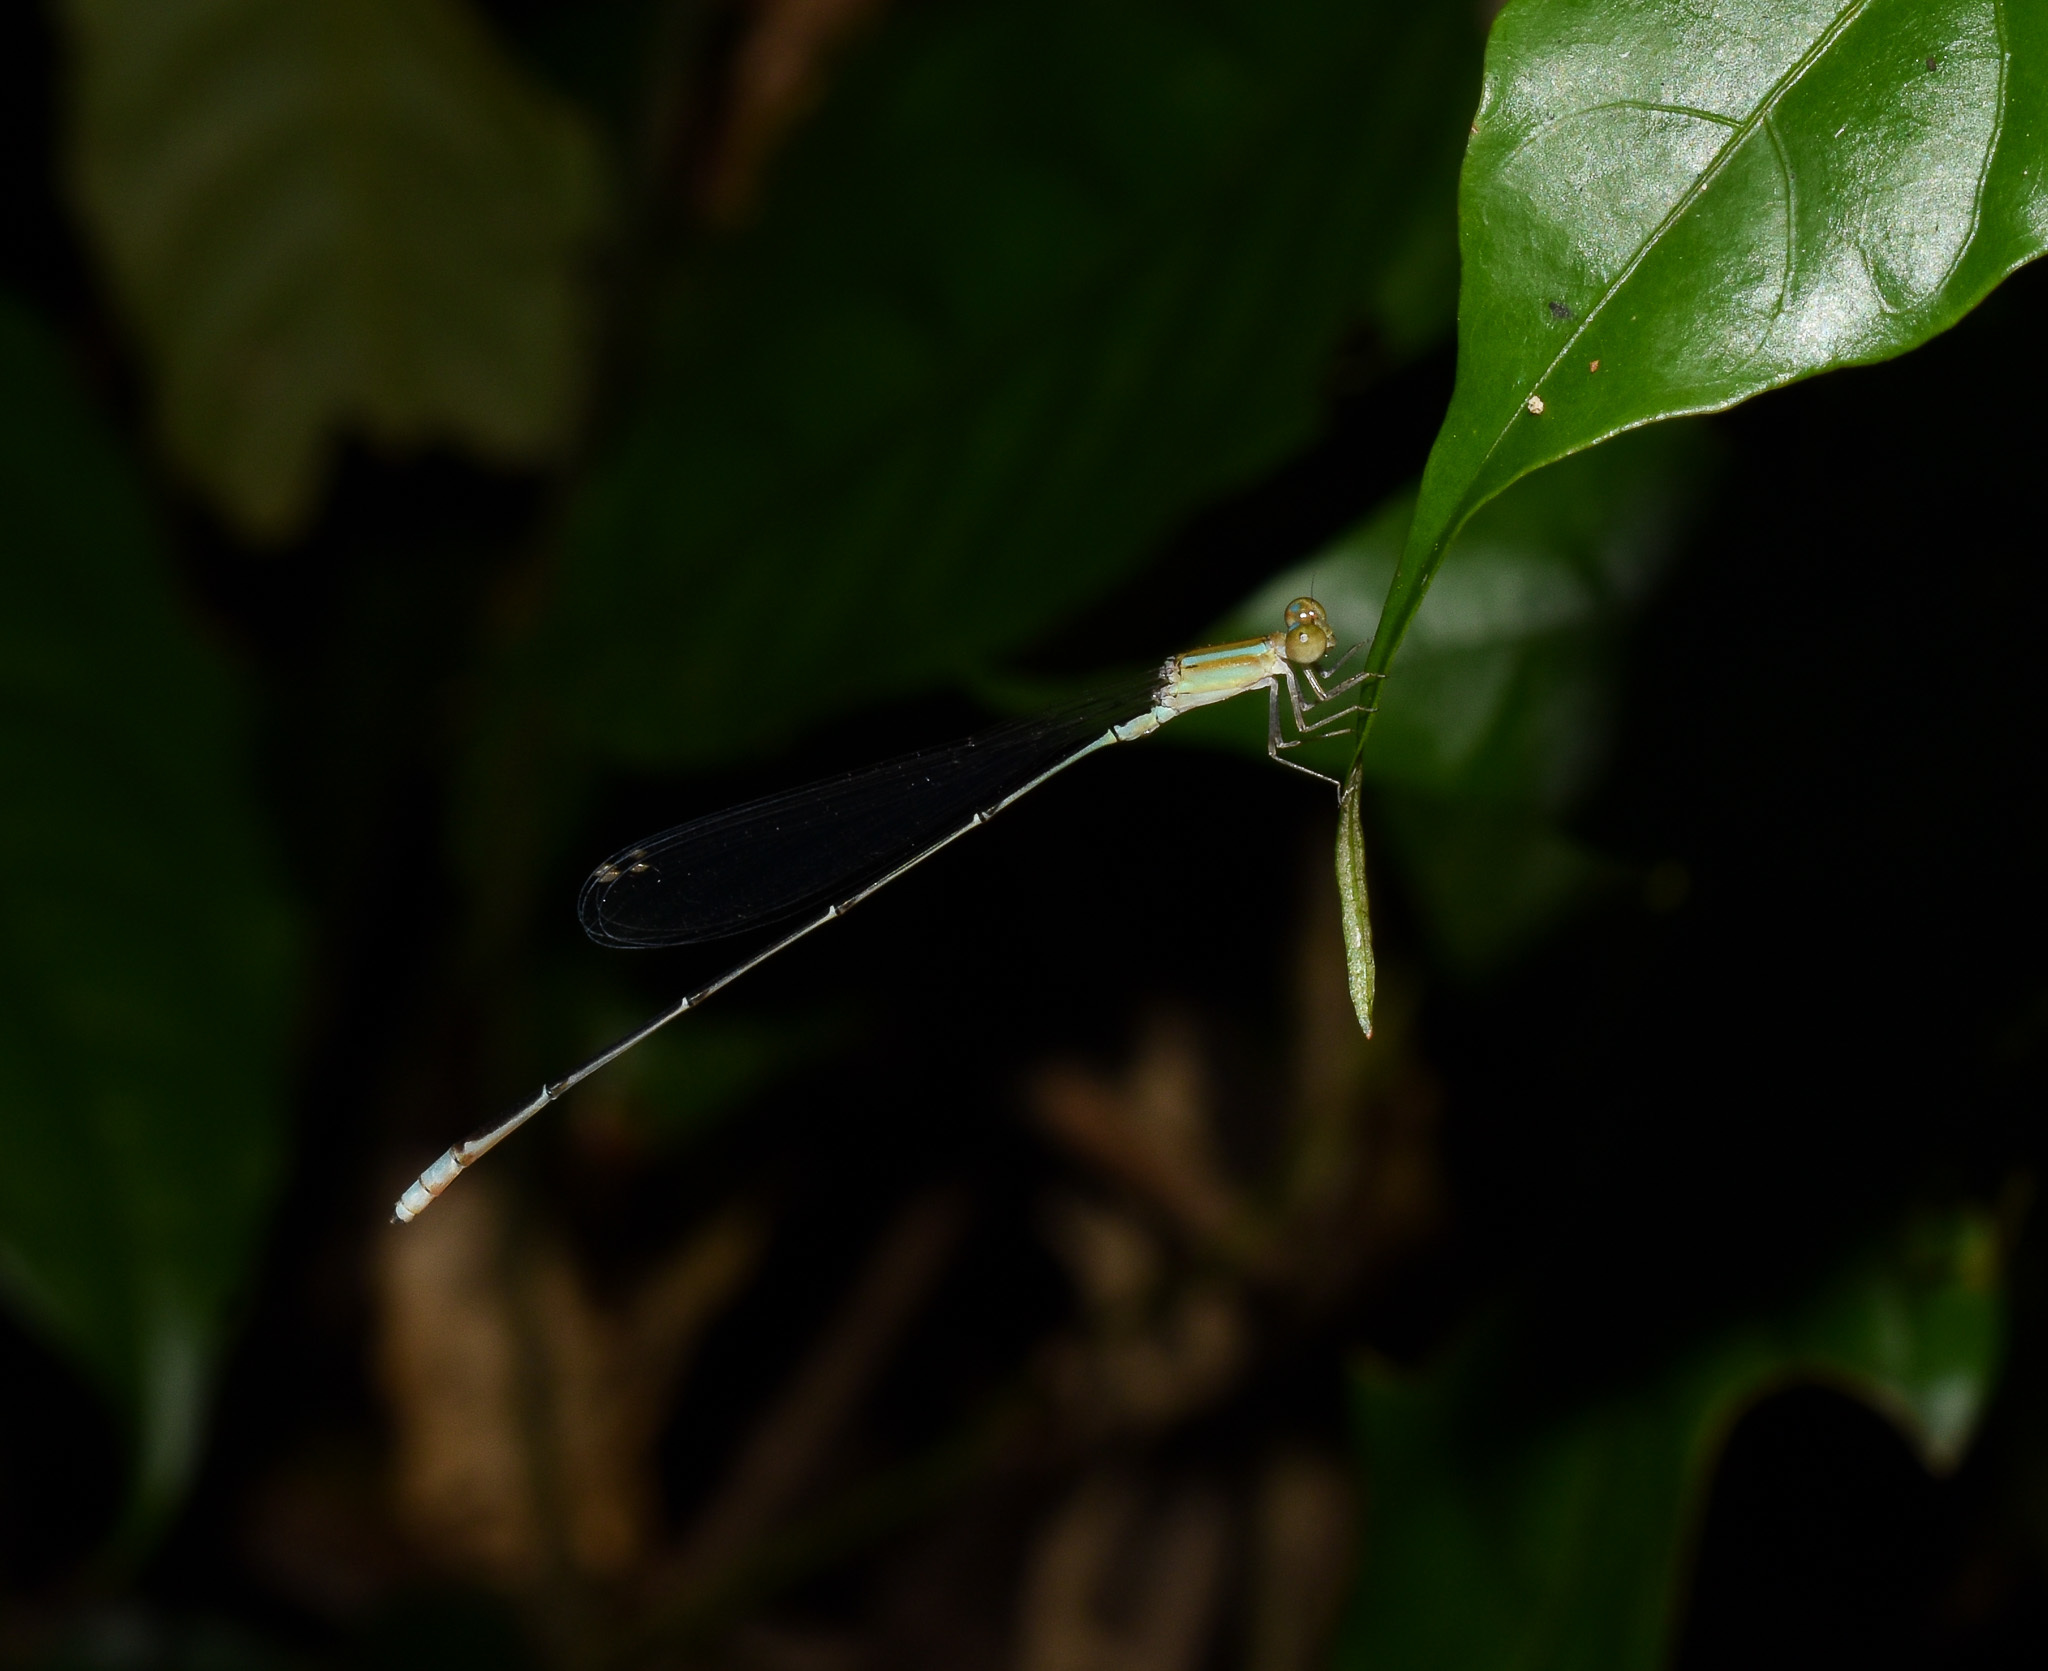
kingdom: Animalia
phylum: Arthropoda
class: Insecta
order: Odonata
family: Coenagrionidae
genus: Aciagrion
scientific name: Aciagrion pallidum
